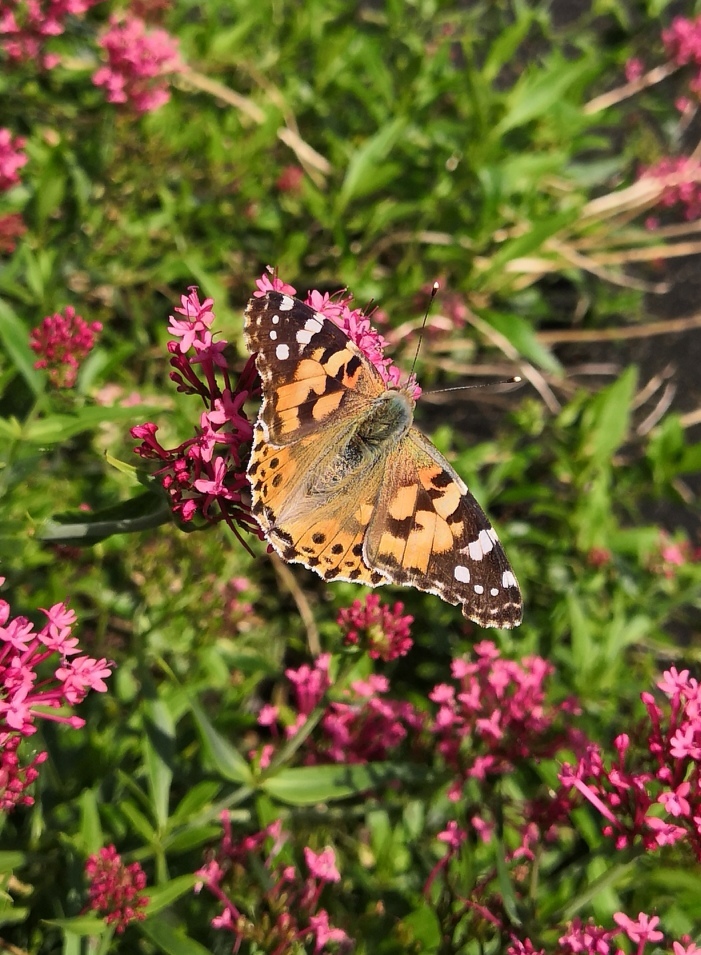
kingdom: Animalia
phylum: Arthropoda
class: Insecta
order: Lepidoptera
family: Nymphalidae
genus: Vanessa
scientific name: Vanessa cardui
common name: Painted lady
